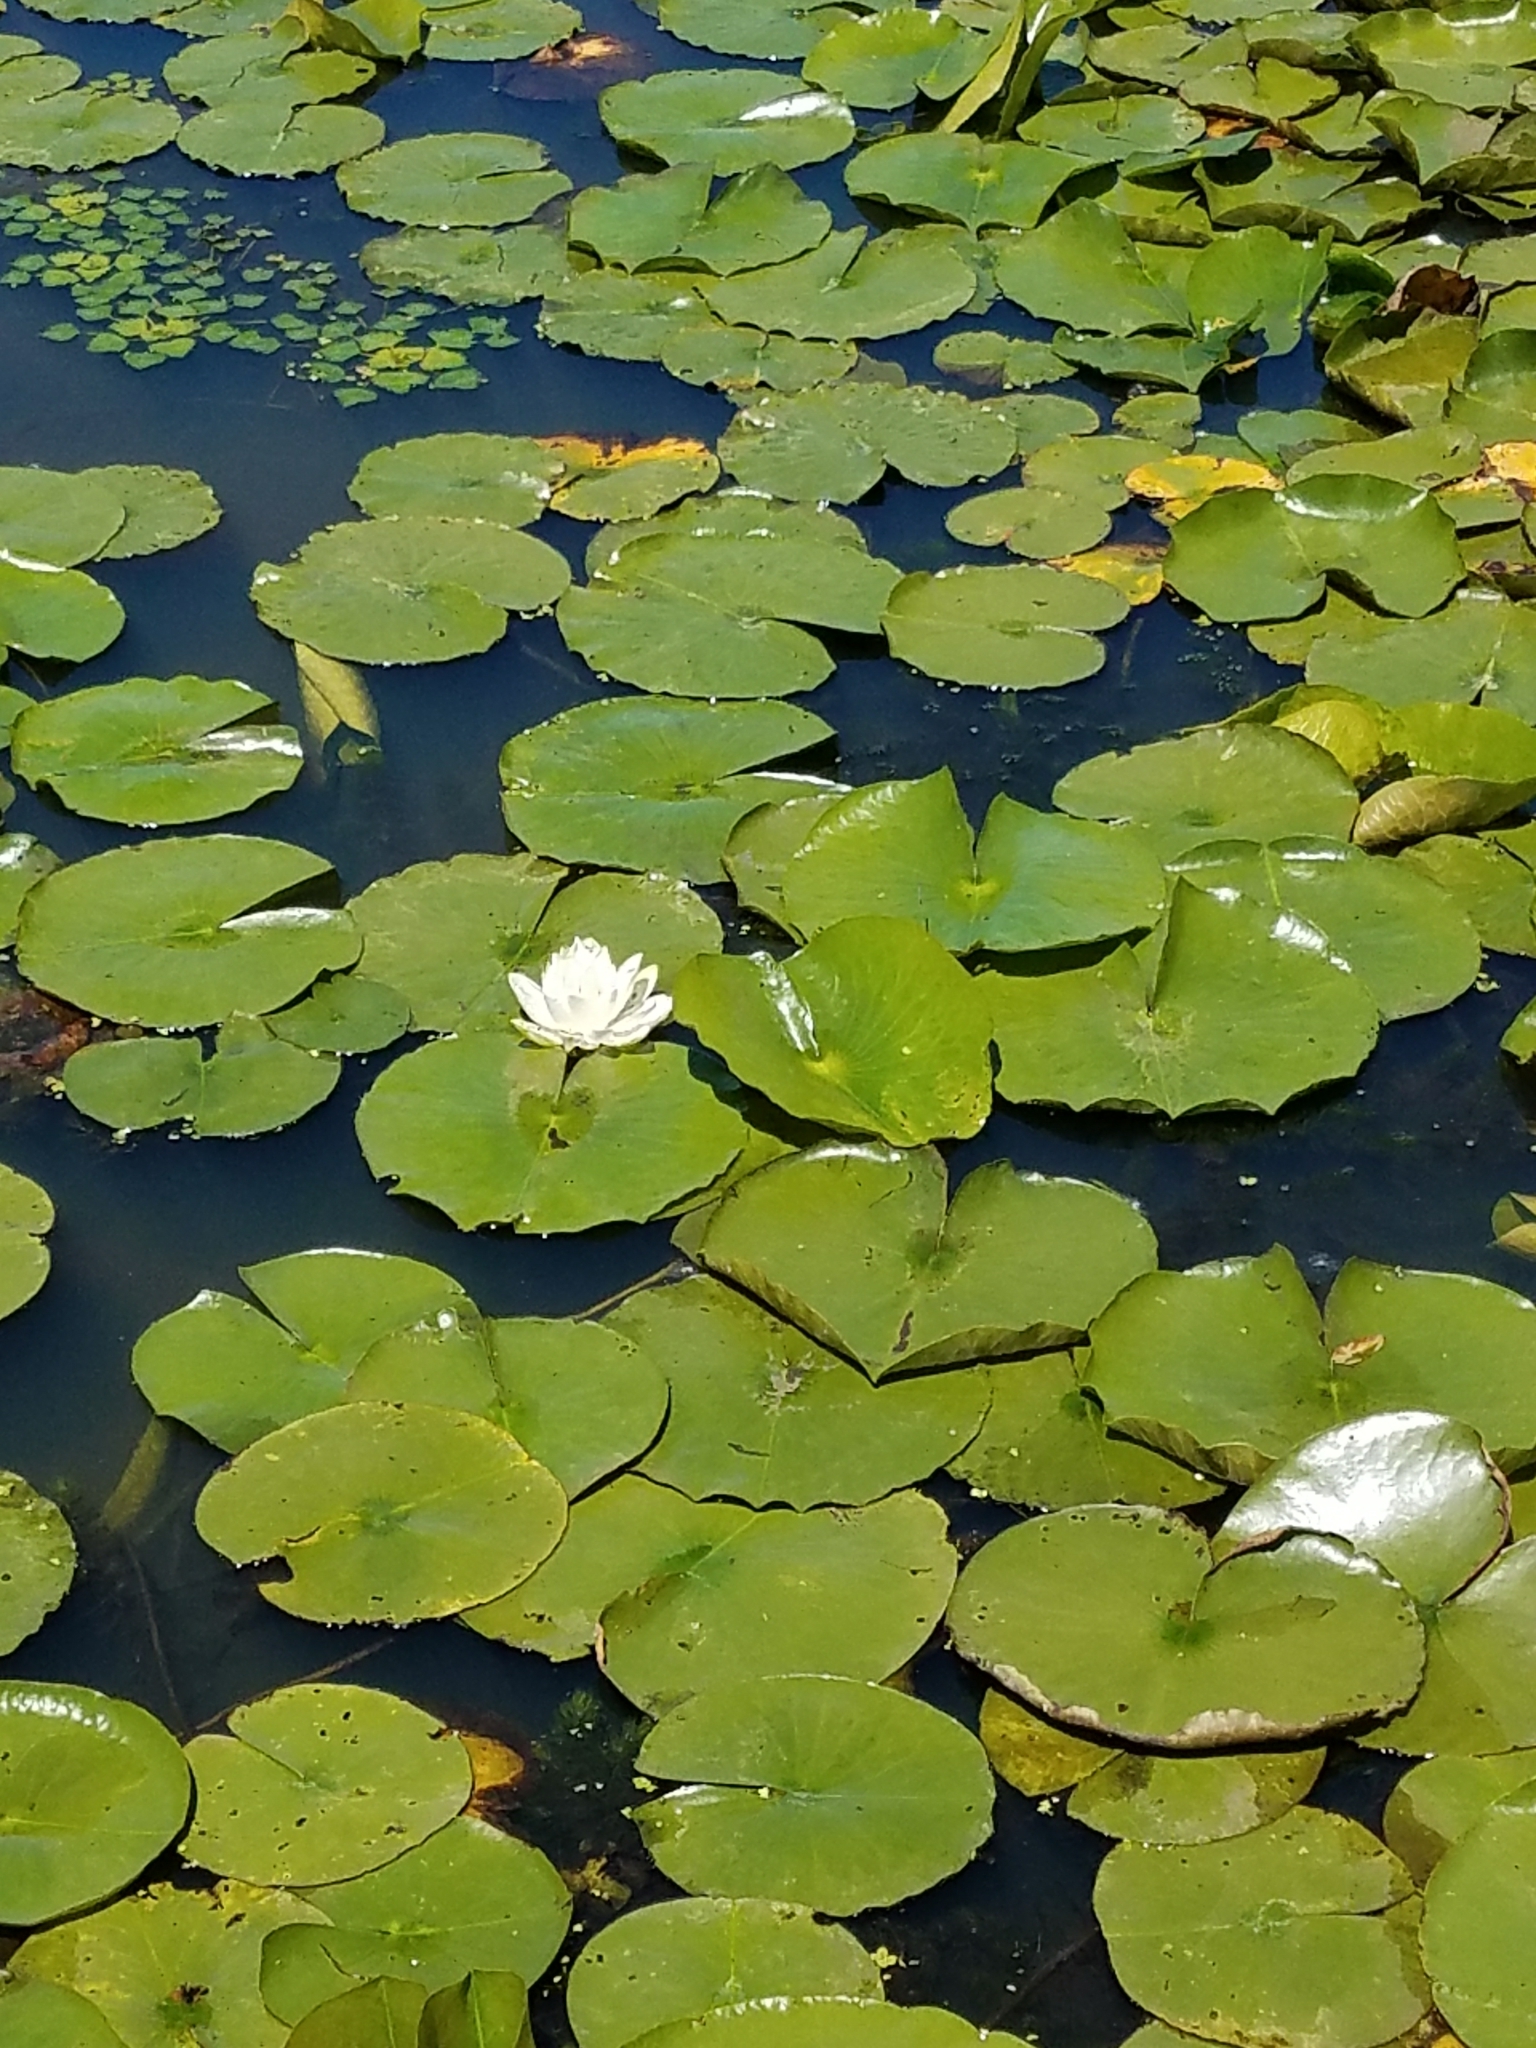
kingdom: Plantae
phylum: Tracheophyta
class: Magnoliopsida
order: Nymphaeales
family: Nymphaeaceae
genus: Nymphaea
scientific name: Nymphaea odorata
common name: Fragrant water-lily
